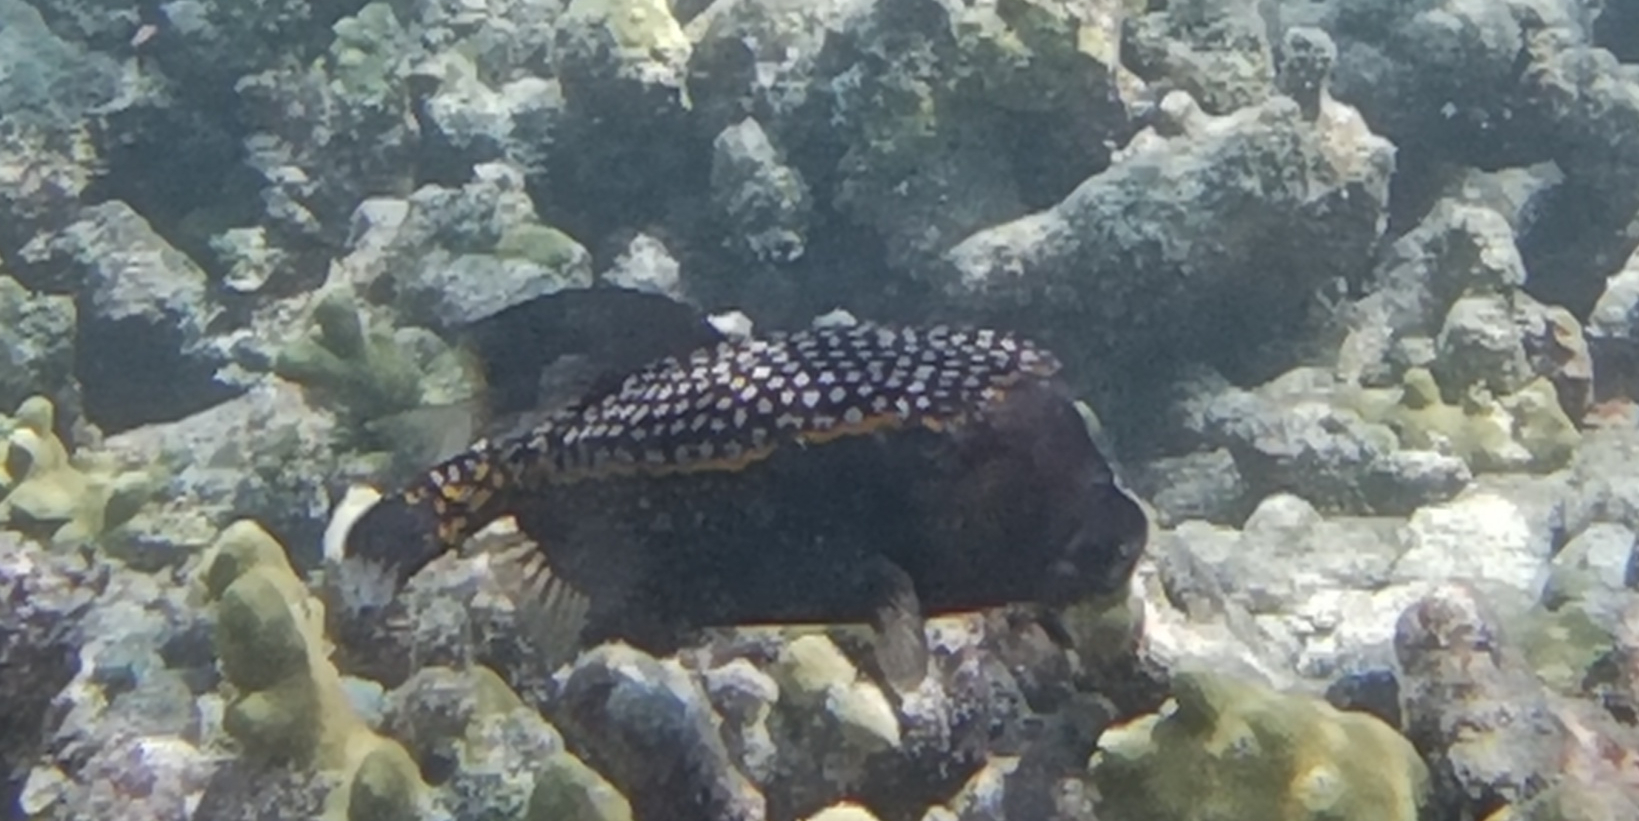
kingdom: Animalia
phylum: Chordata
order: Tetraodontiformes
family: Ostraciidae
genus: Ostracion
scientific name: Ostracion meleagris
